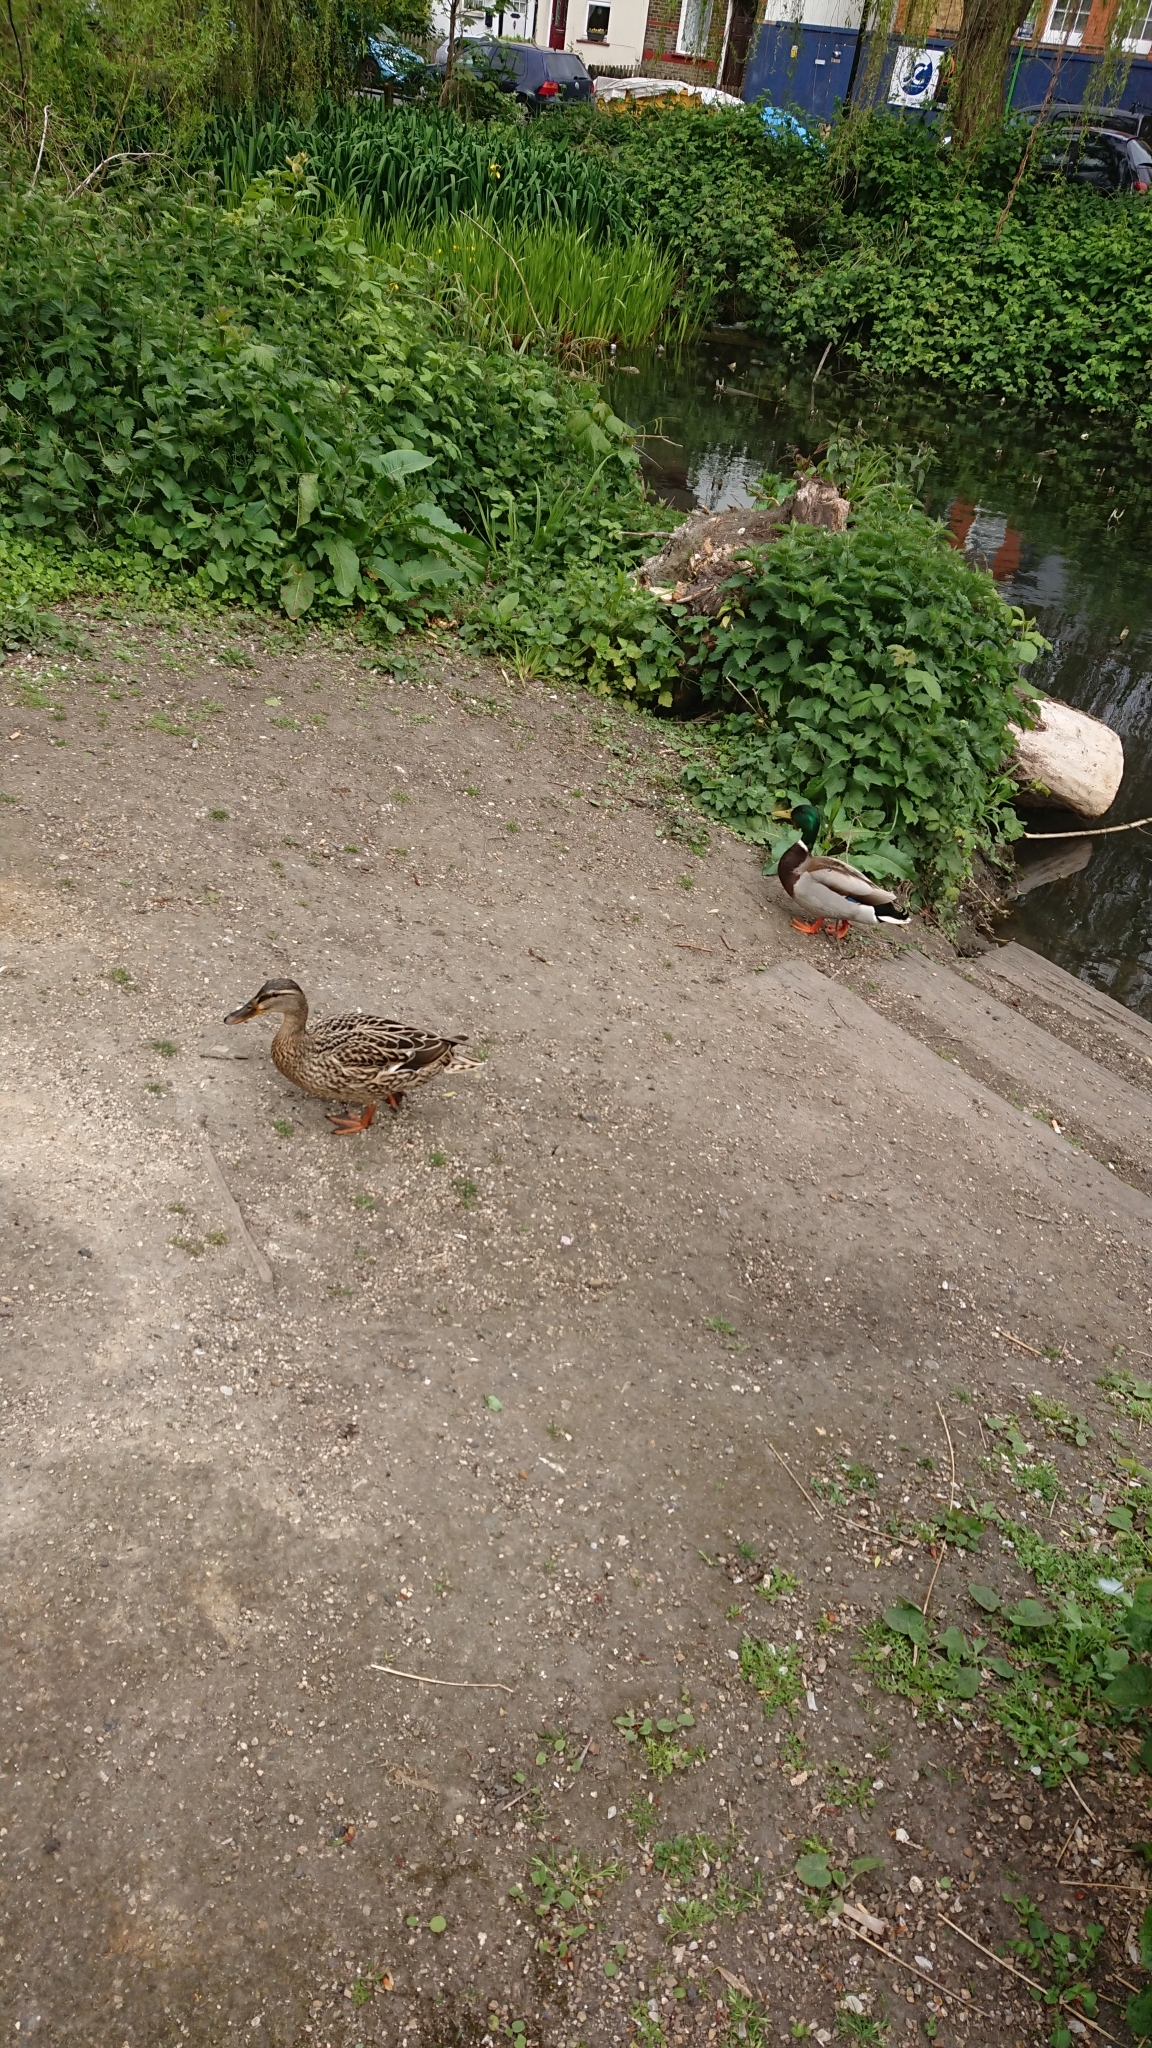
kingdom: Animalia
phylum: Chordata
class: Aves
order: Anseriformes
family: Anatidae
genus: Anas
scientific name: Anas platyrhynchos
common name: Mallard
